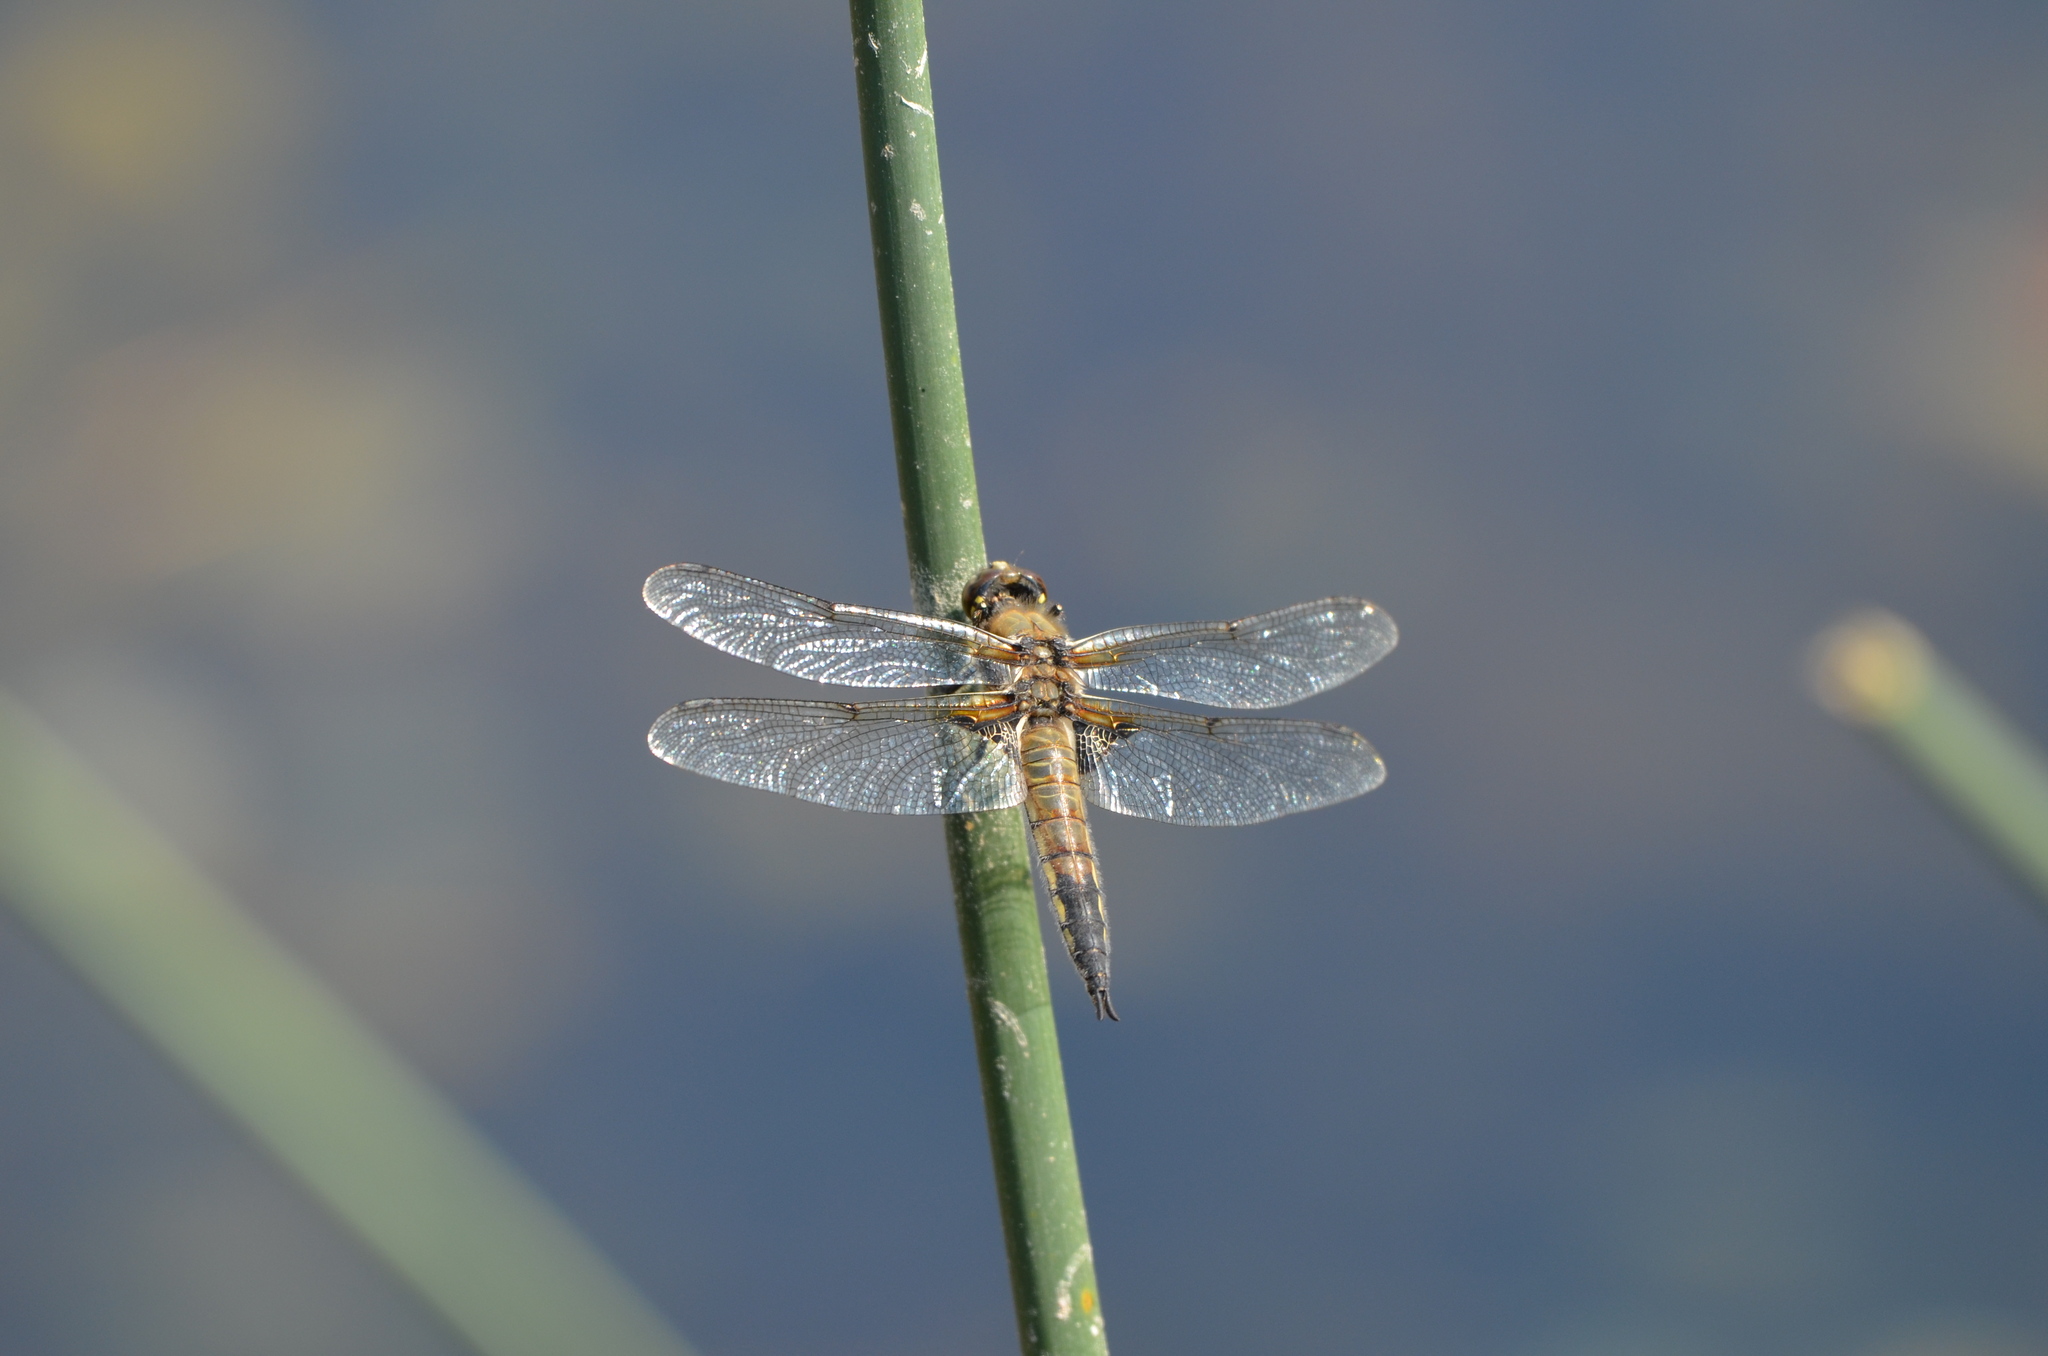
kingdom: Animalia
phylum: Arthropoda
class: Insecta
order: Odonata
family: Libellulidae
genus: Libellula
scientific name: Libellula quadrimaculata
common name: Four-spotted chaser
